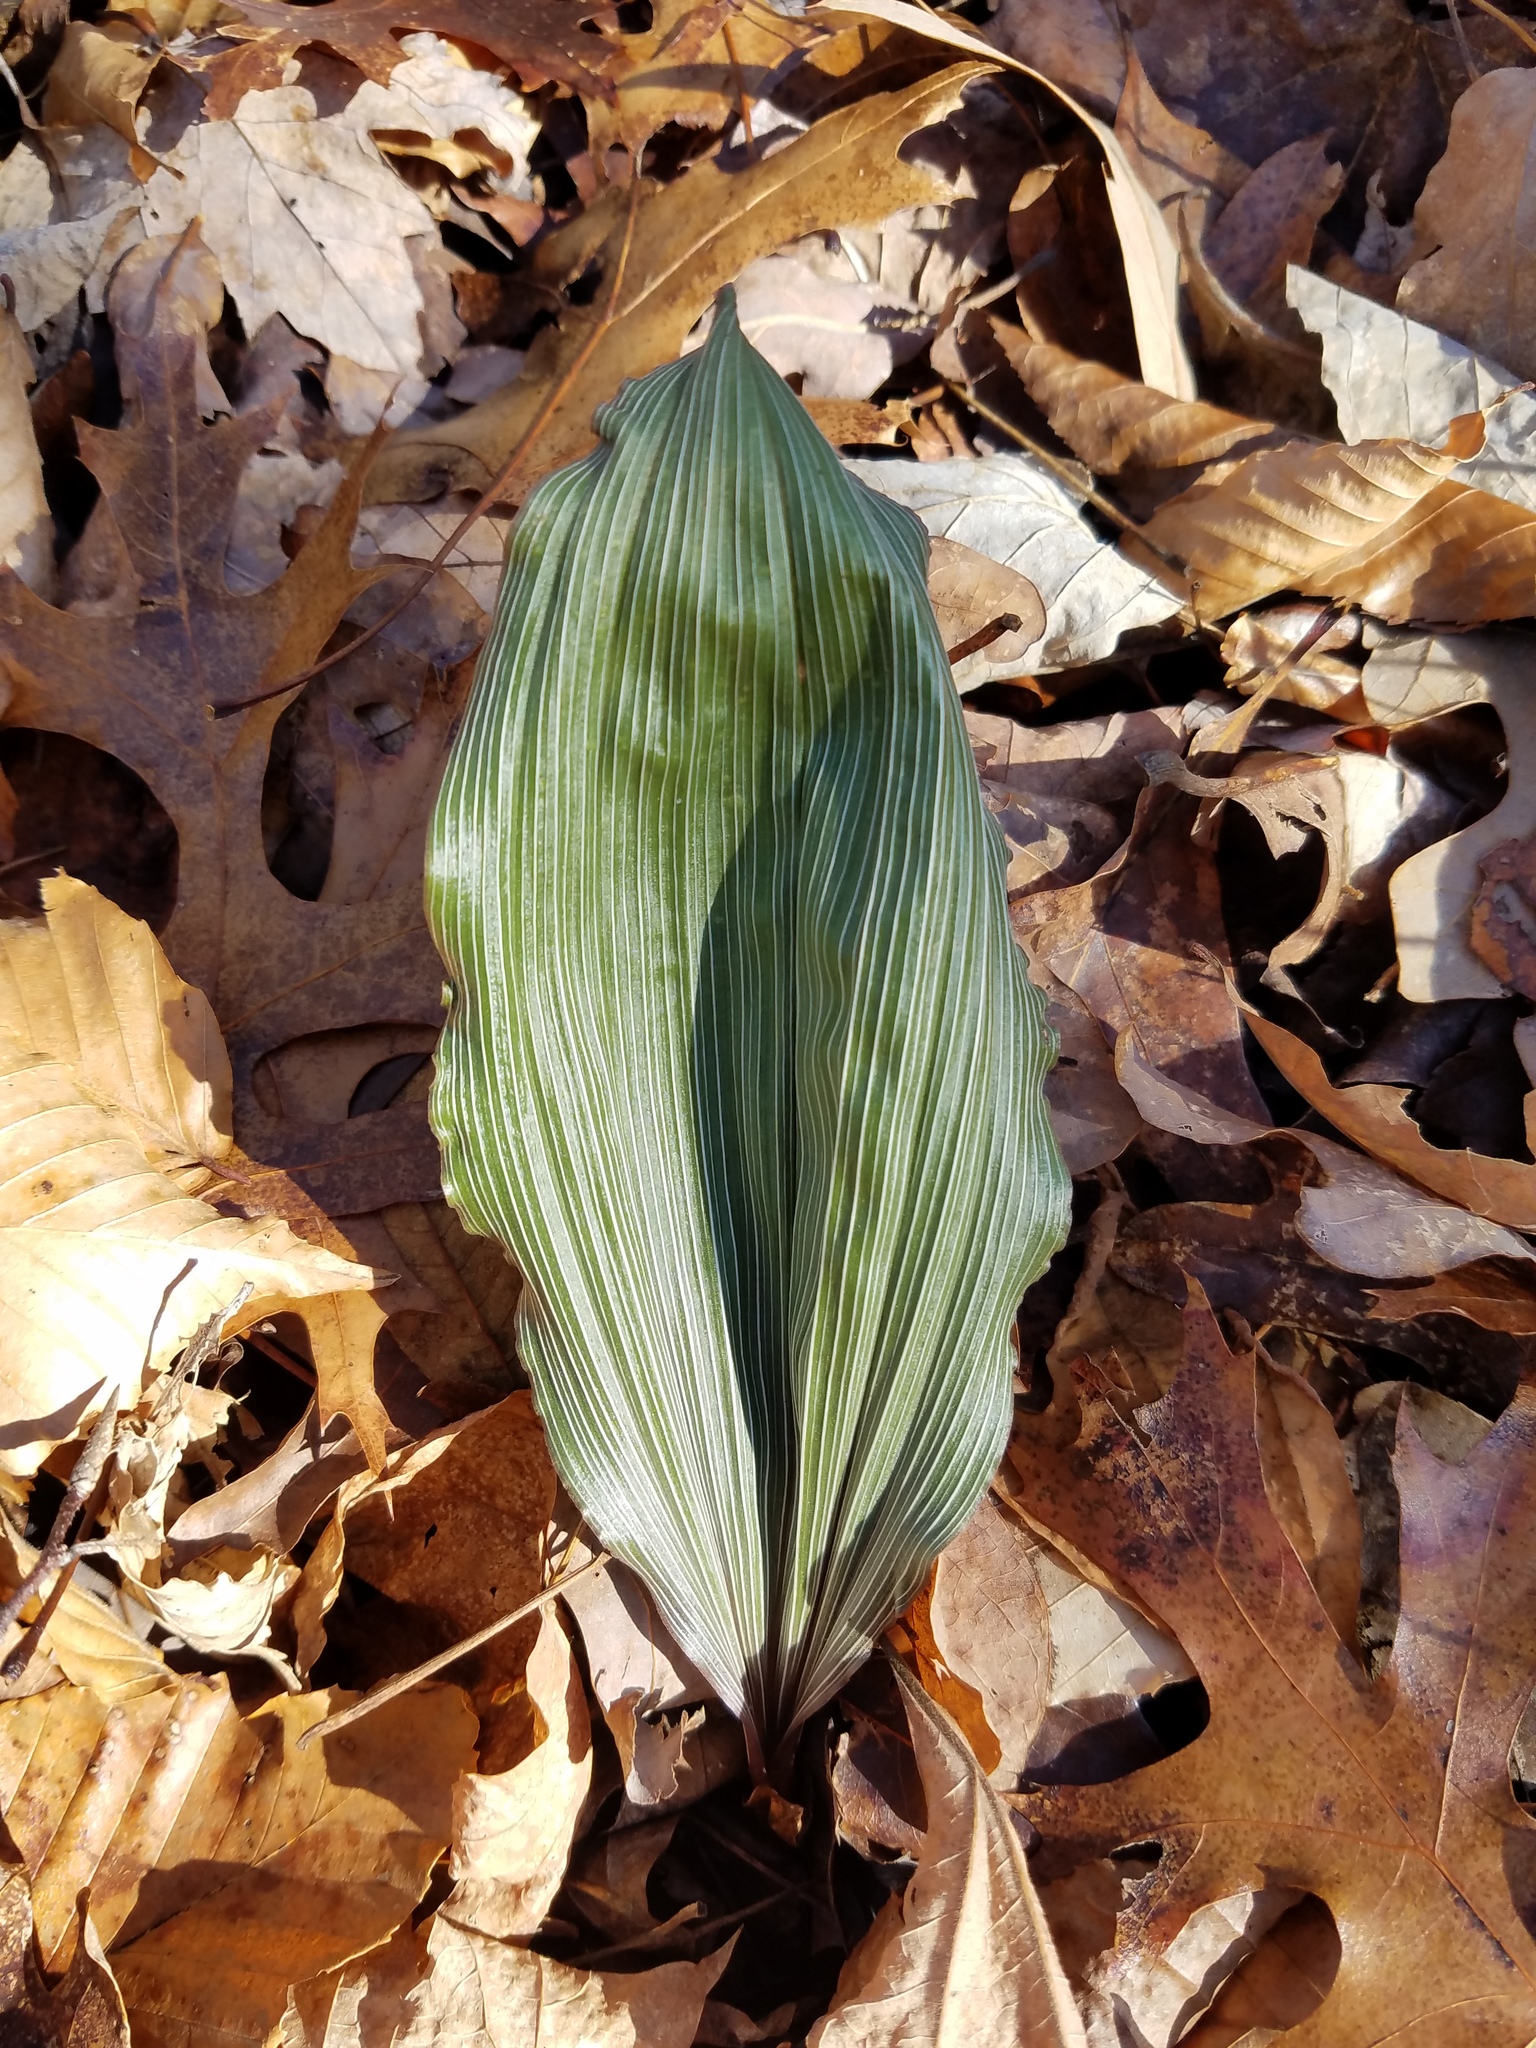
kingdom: Plantae
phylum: Tracheophyta
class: Liliopsida
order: Asparagales
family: Orchidaceae
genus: Aplectrum
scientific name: Aplectrum hyemale
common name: Adam-and-eve
